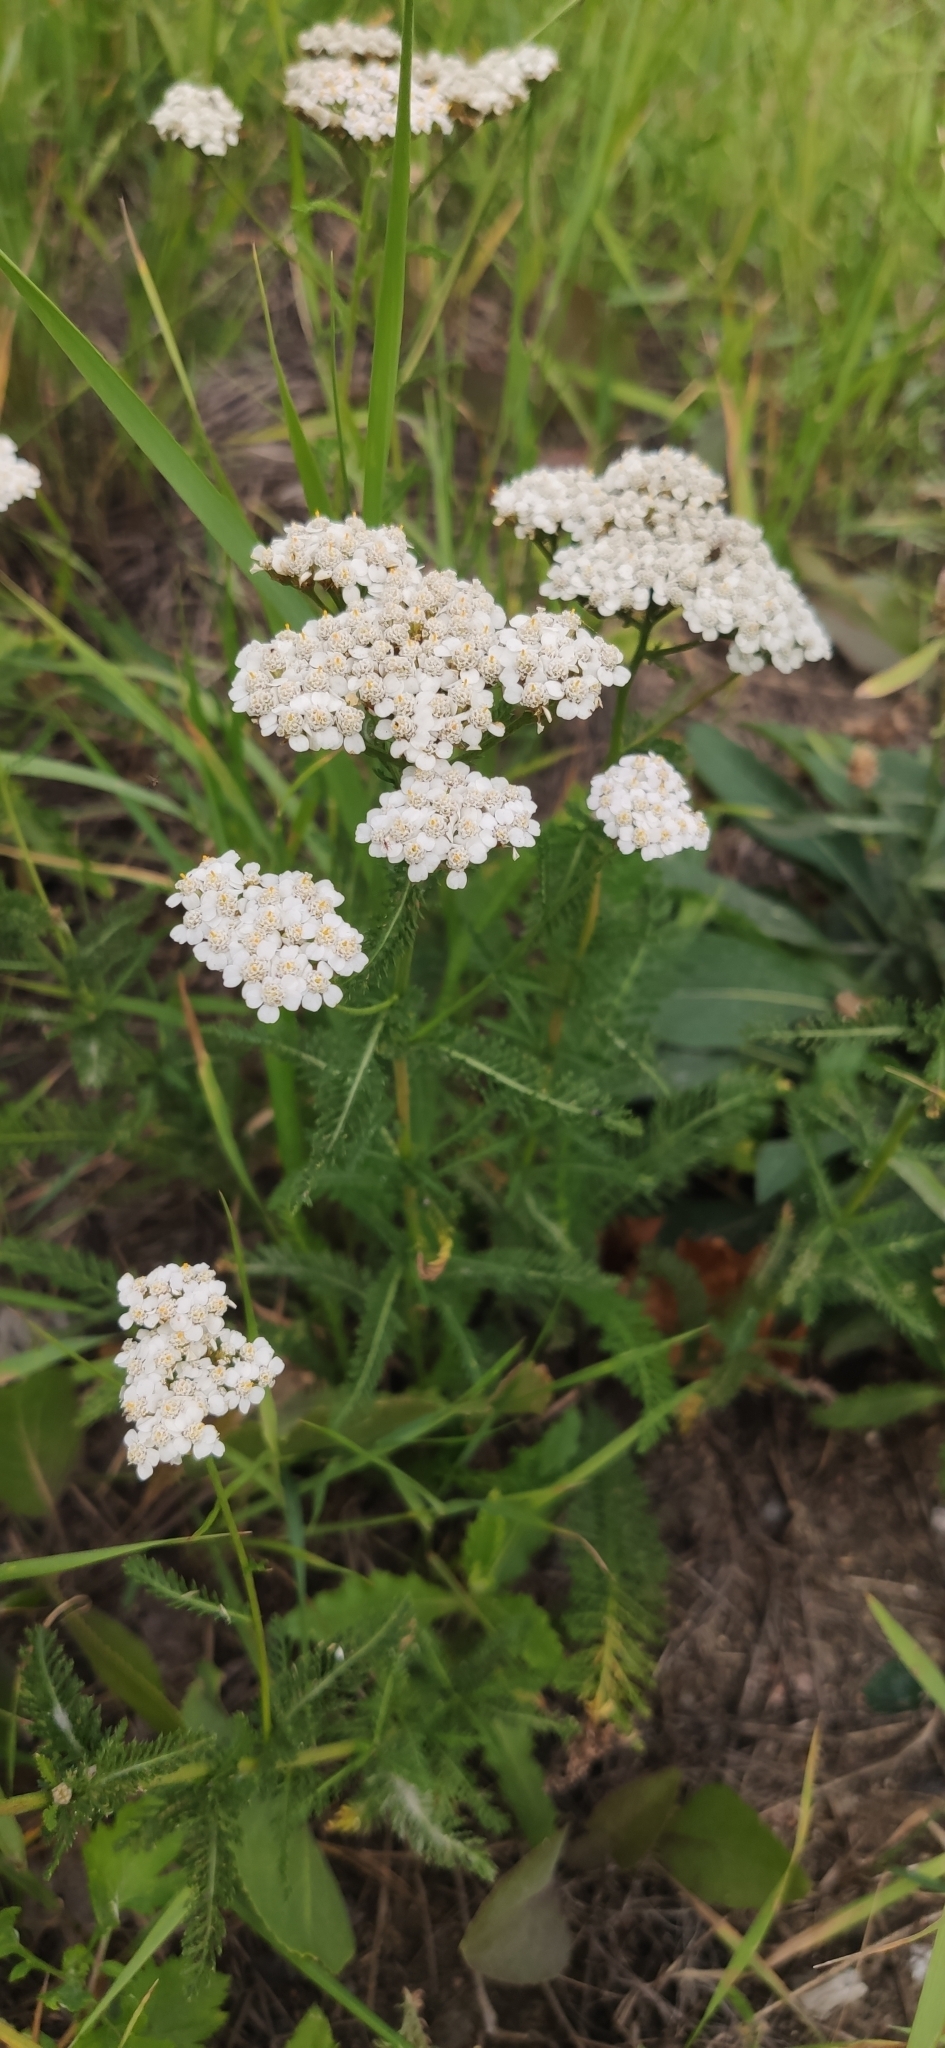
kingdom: Plantae
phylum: Tracheophyta
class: Magnoliopsida
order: Asterales
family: Asteraceae
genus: Achillea
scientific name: Achillea millefolium
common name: Yarrow
